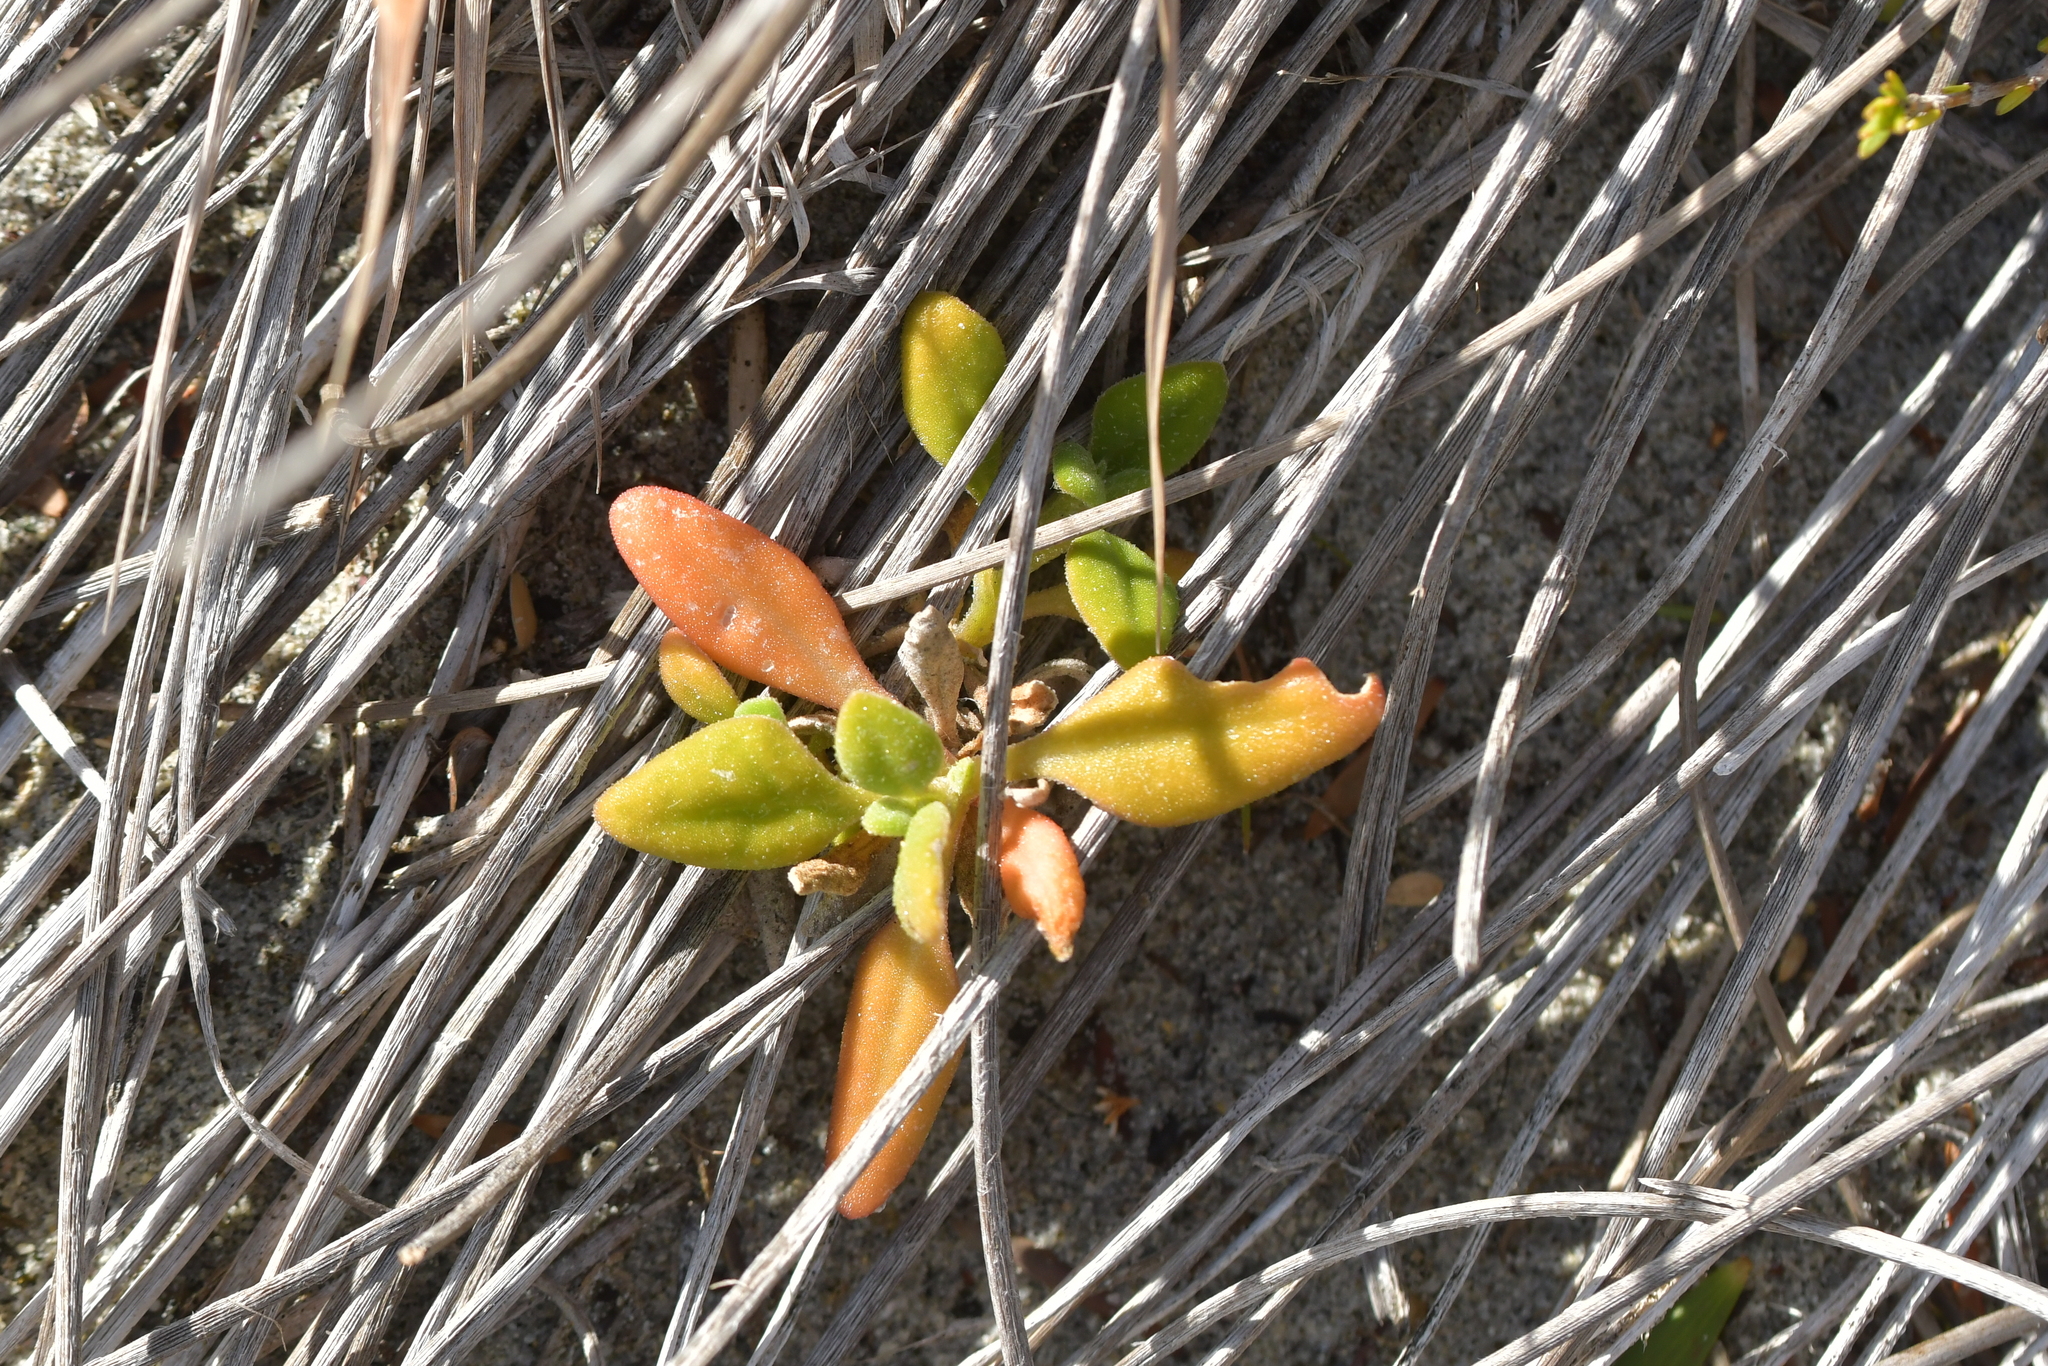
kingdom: Plantae
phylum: Tracheophyta
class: Magnoliopsida
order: Caryophyllales
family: Aizoaceae
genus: Tetragonia
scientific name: Tetragonia implexicoma
